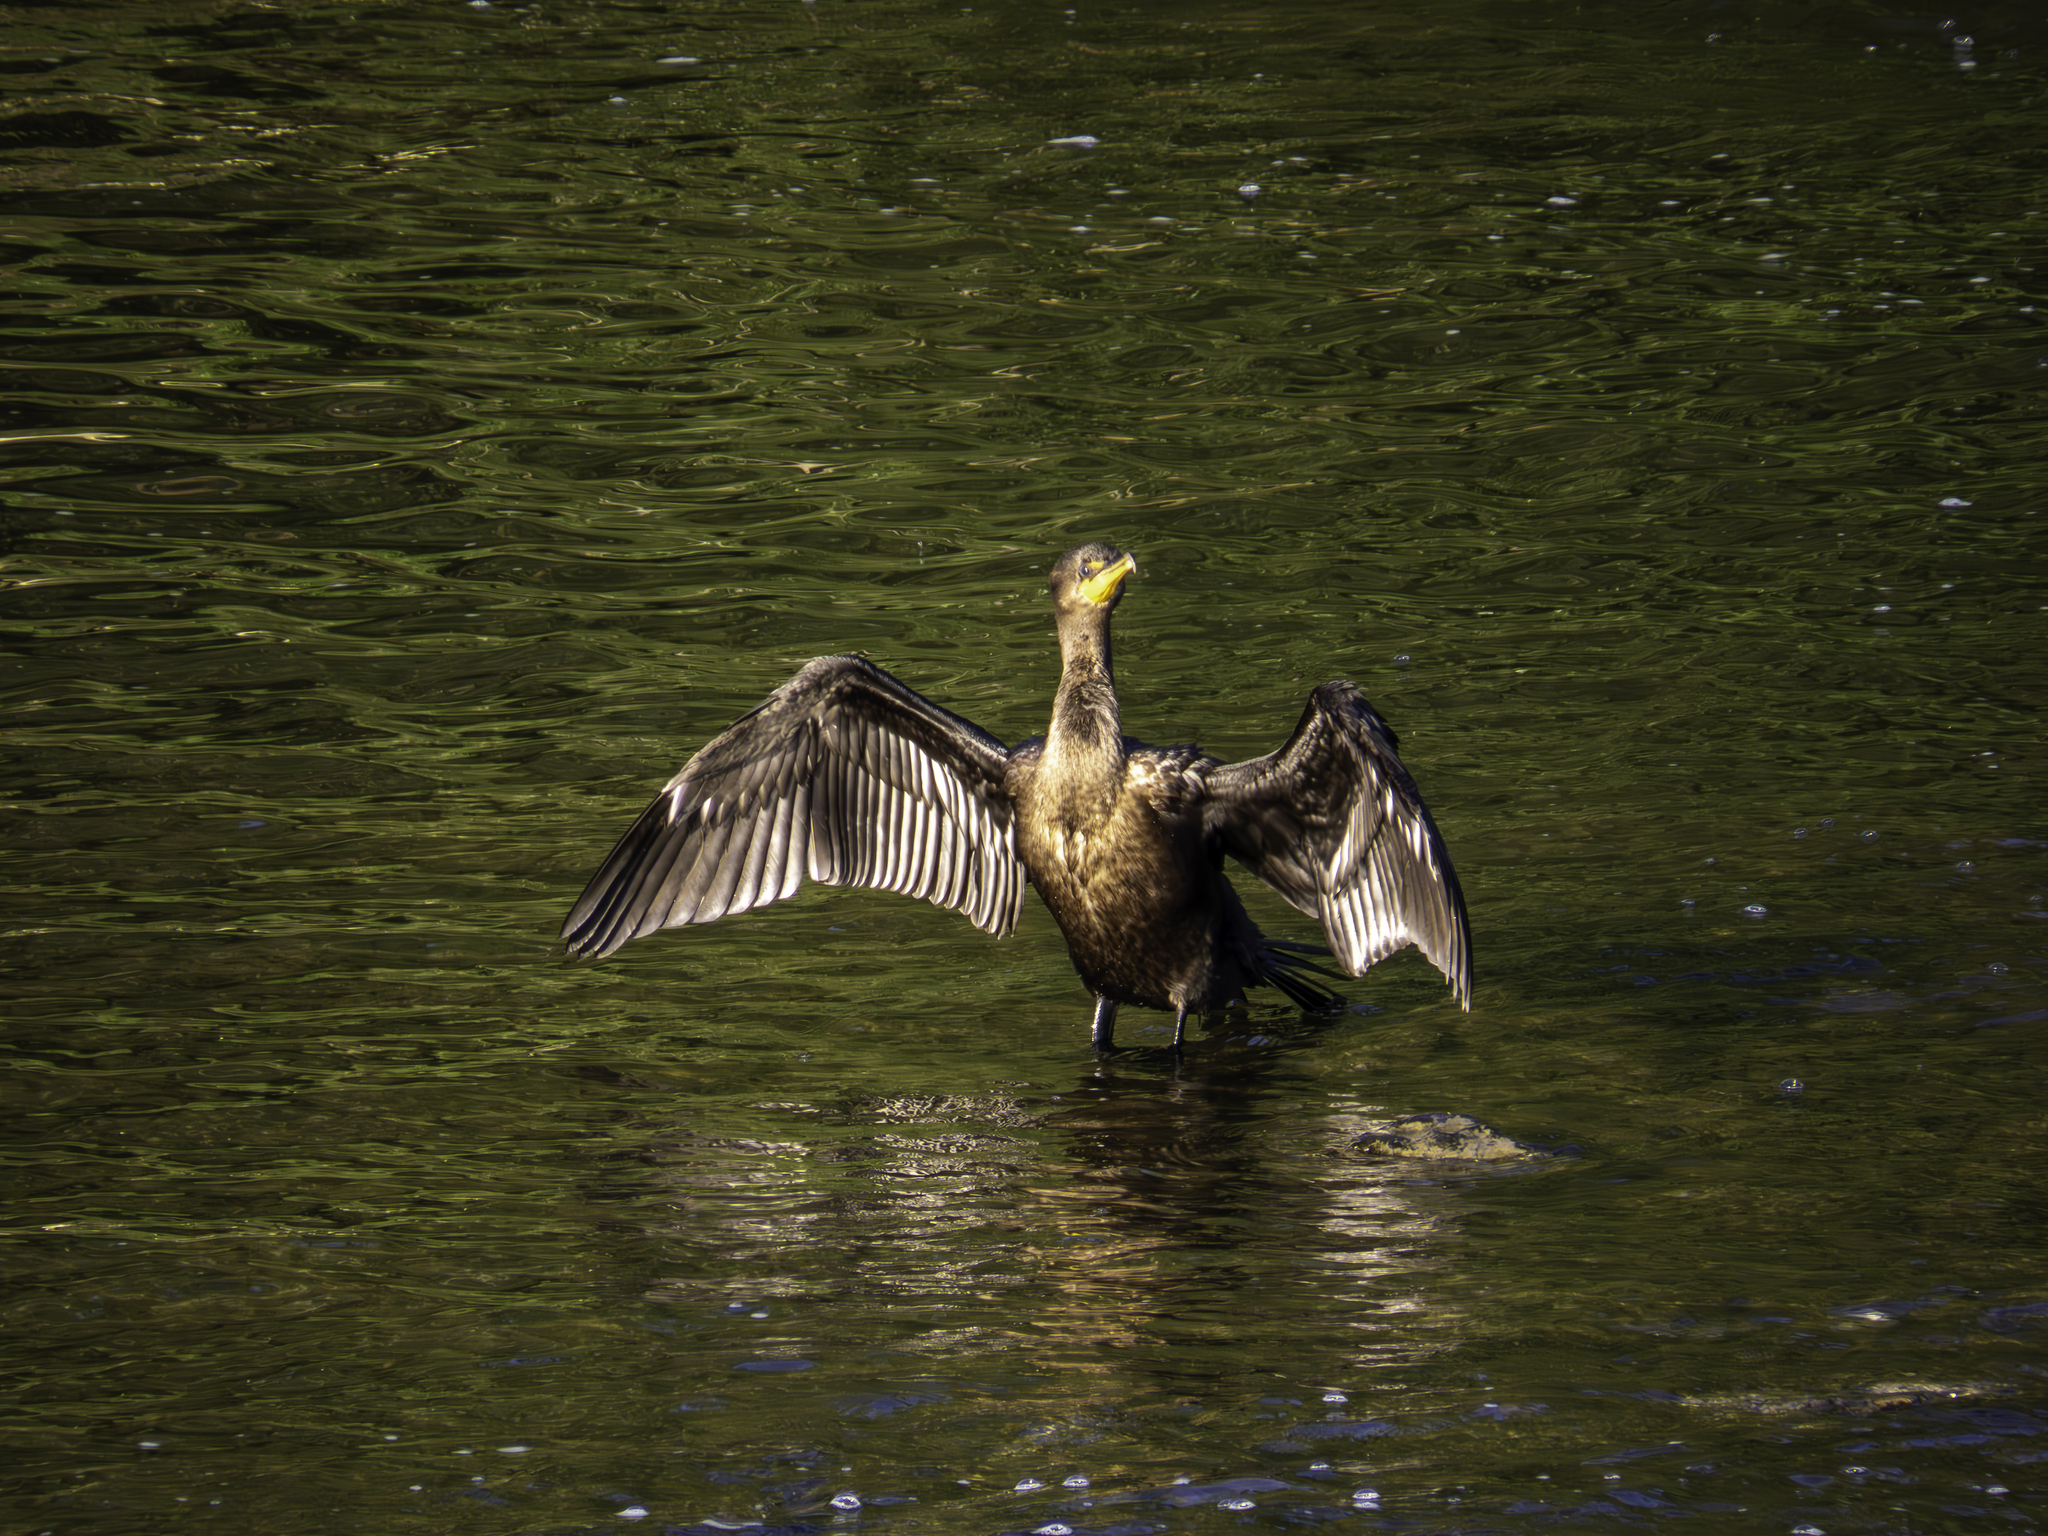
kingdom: Animalia
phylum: Chordata
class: Aves
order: Suliformes
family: Phalacrocoracidae
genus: Phalacrocorax
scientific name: Phalacrocorax auritus
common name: Double-crested cormorant
